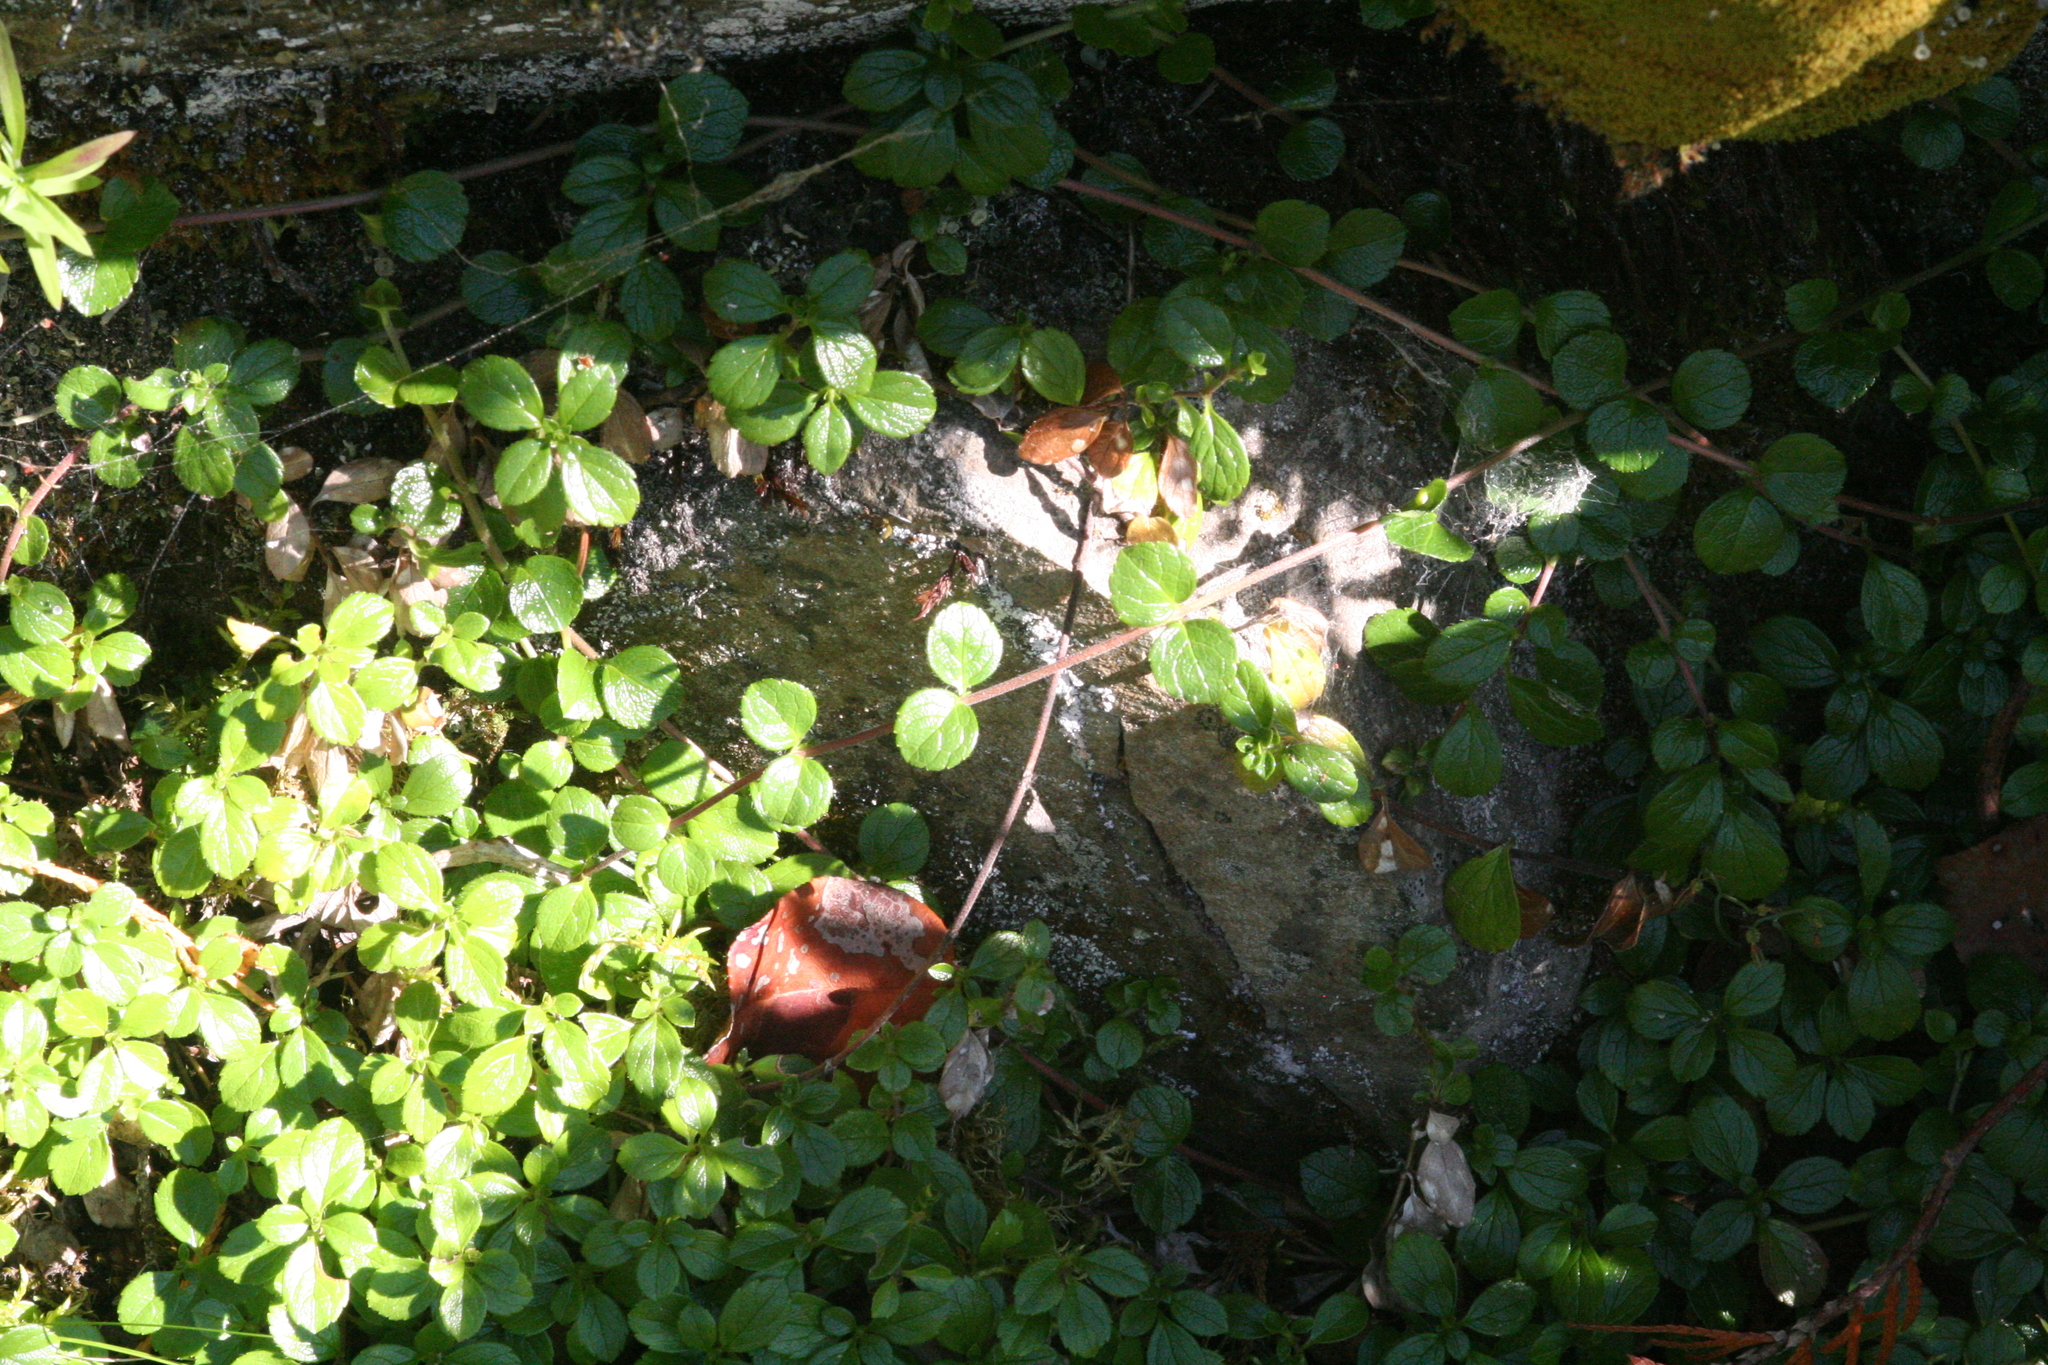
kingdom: Plantae
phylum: Tracheophyta
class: Magnoliopsida
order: Dipsacales
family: Caprifoliaceae
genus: Linnaea
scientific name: Linnaea borealis
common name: Twinflower
